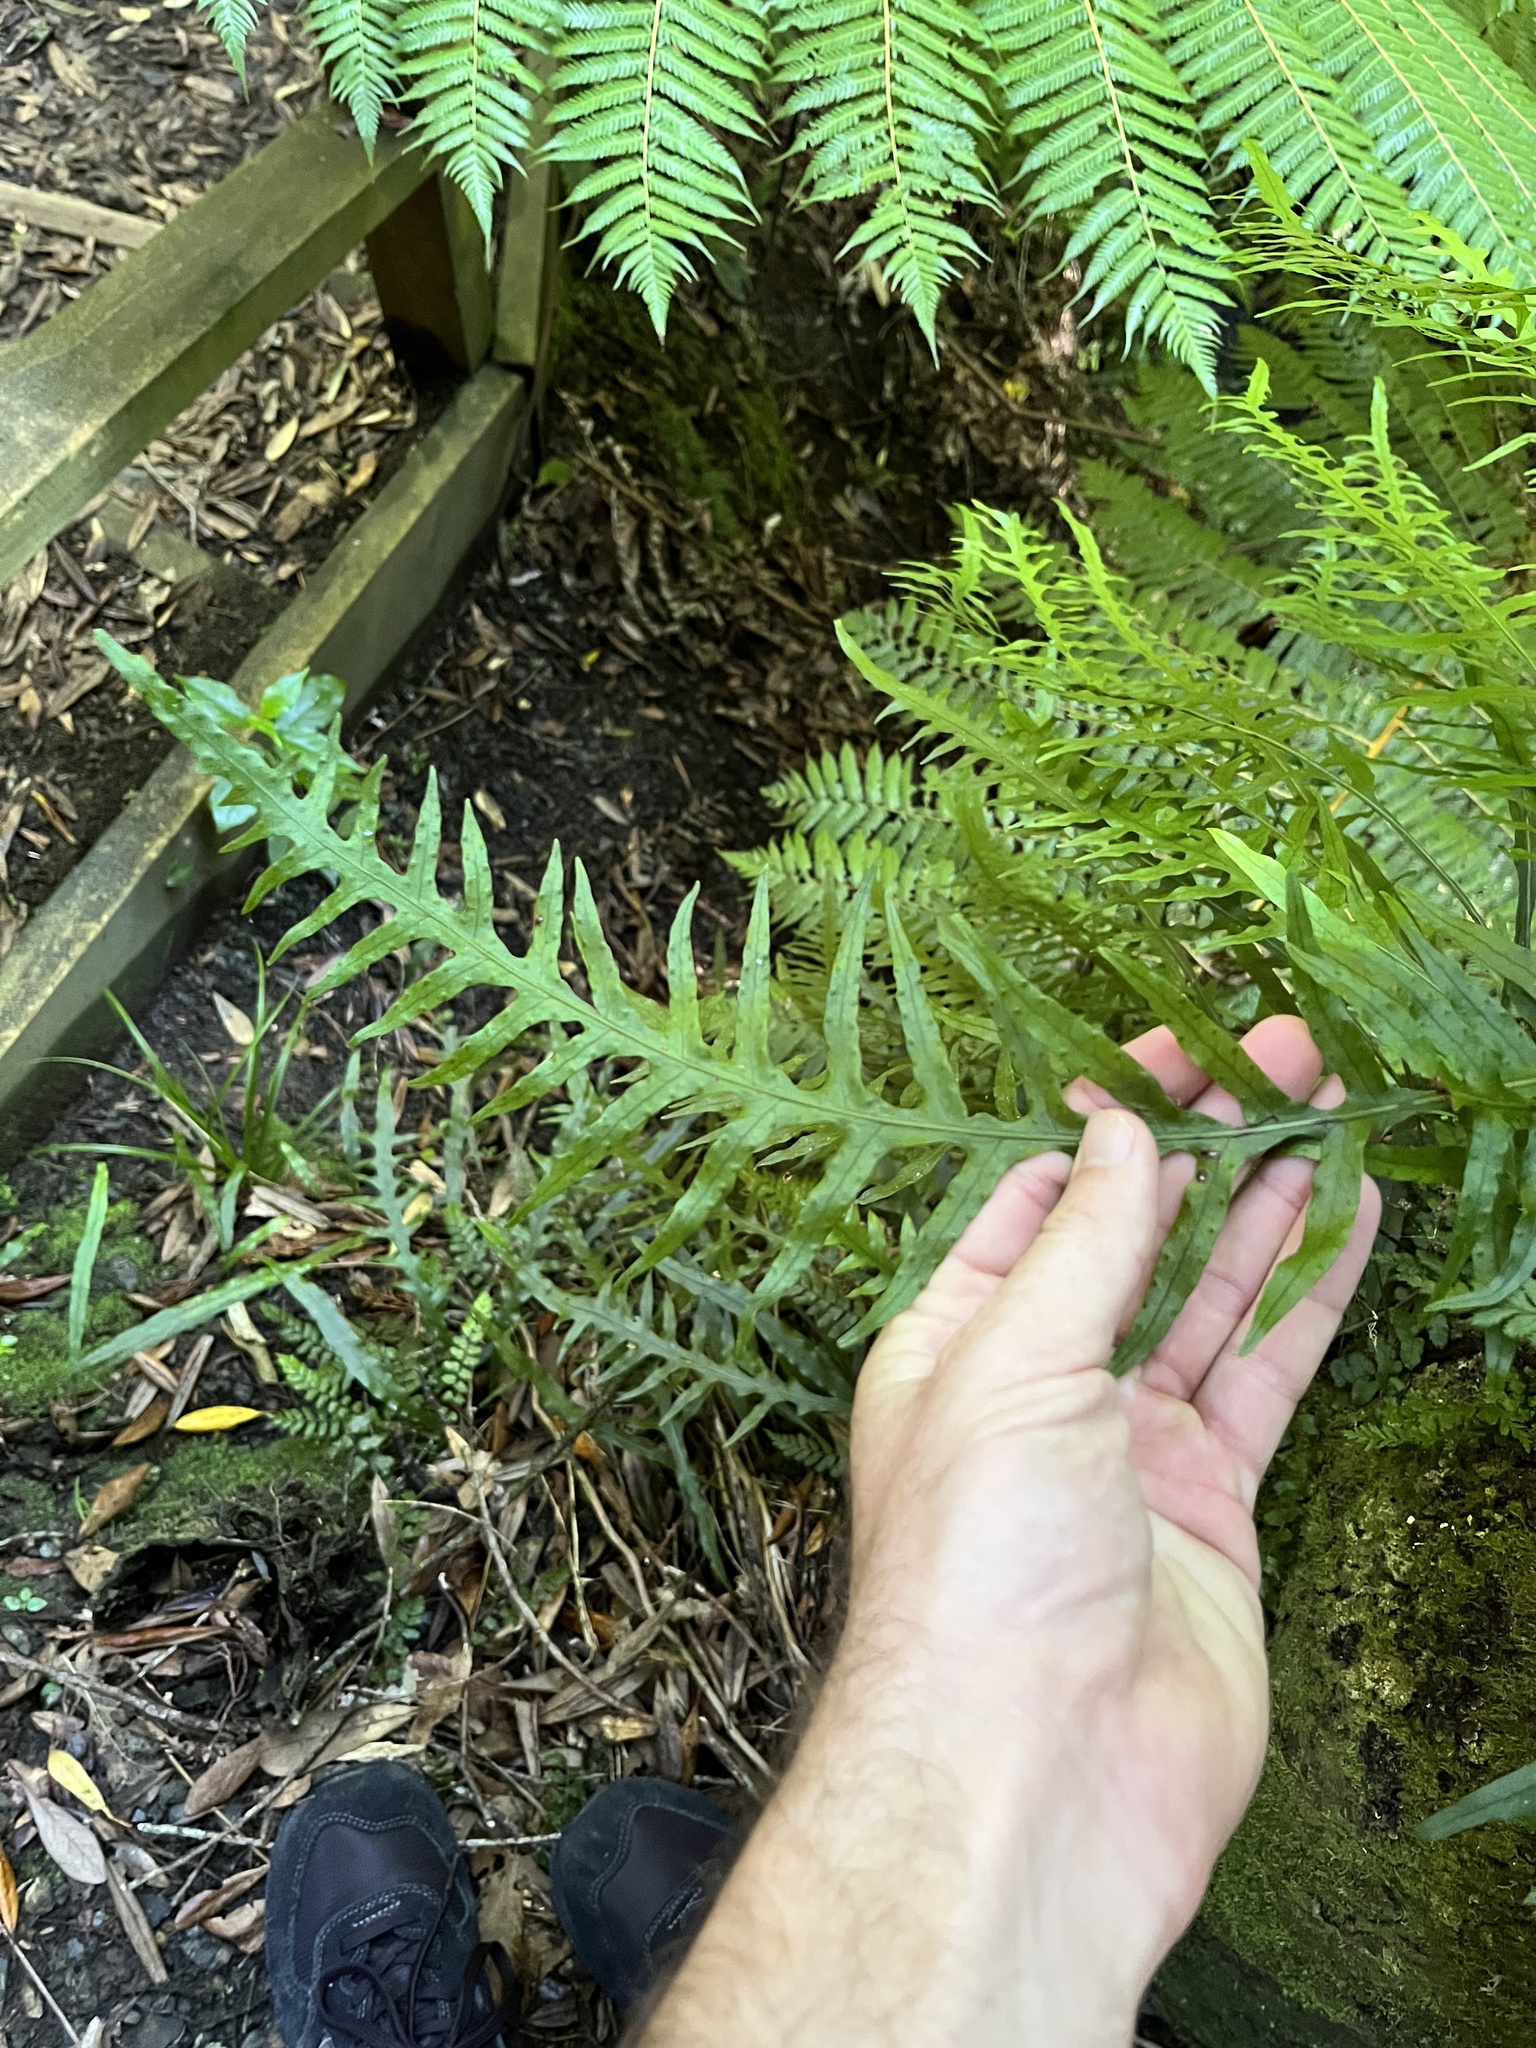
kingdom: Plantae
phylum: Tracheophyta
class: Polypodiopsida
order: Polypodiales
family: Polypodiaceae
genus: Lecanopteris
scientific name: Lecanopteris scandens
